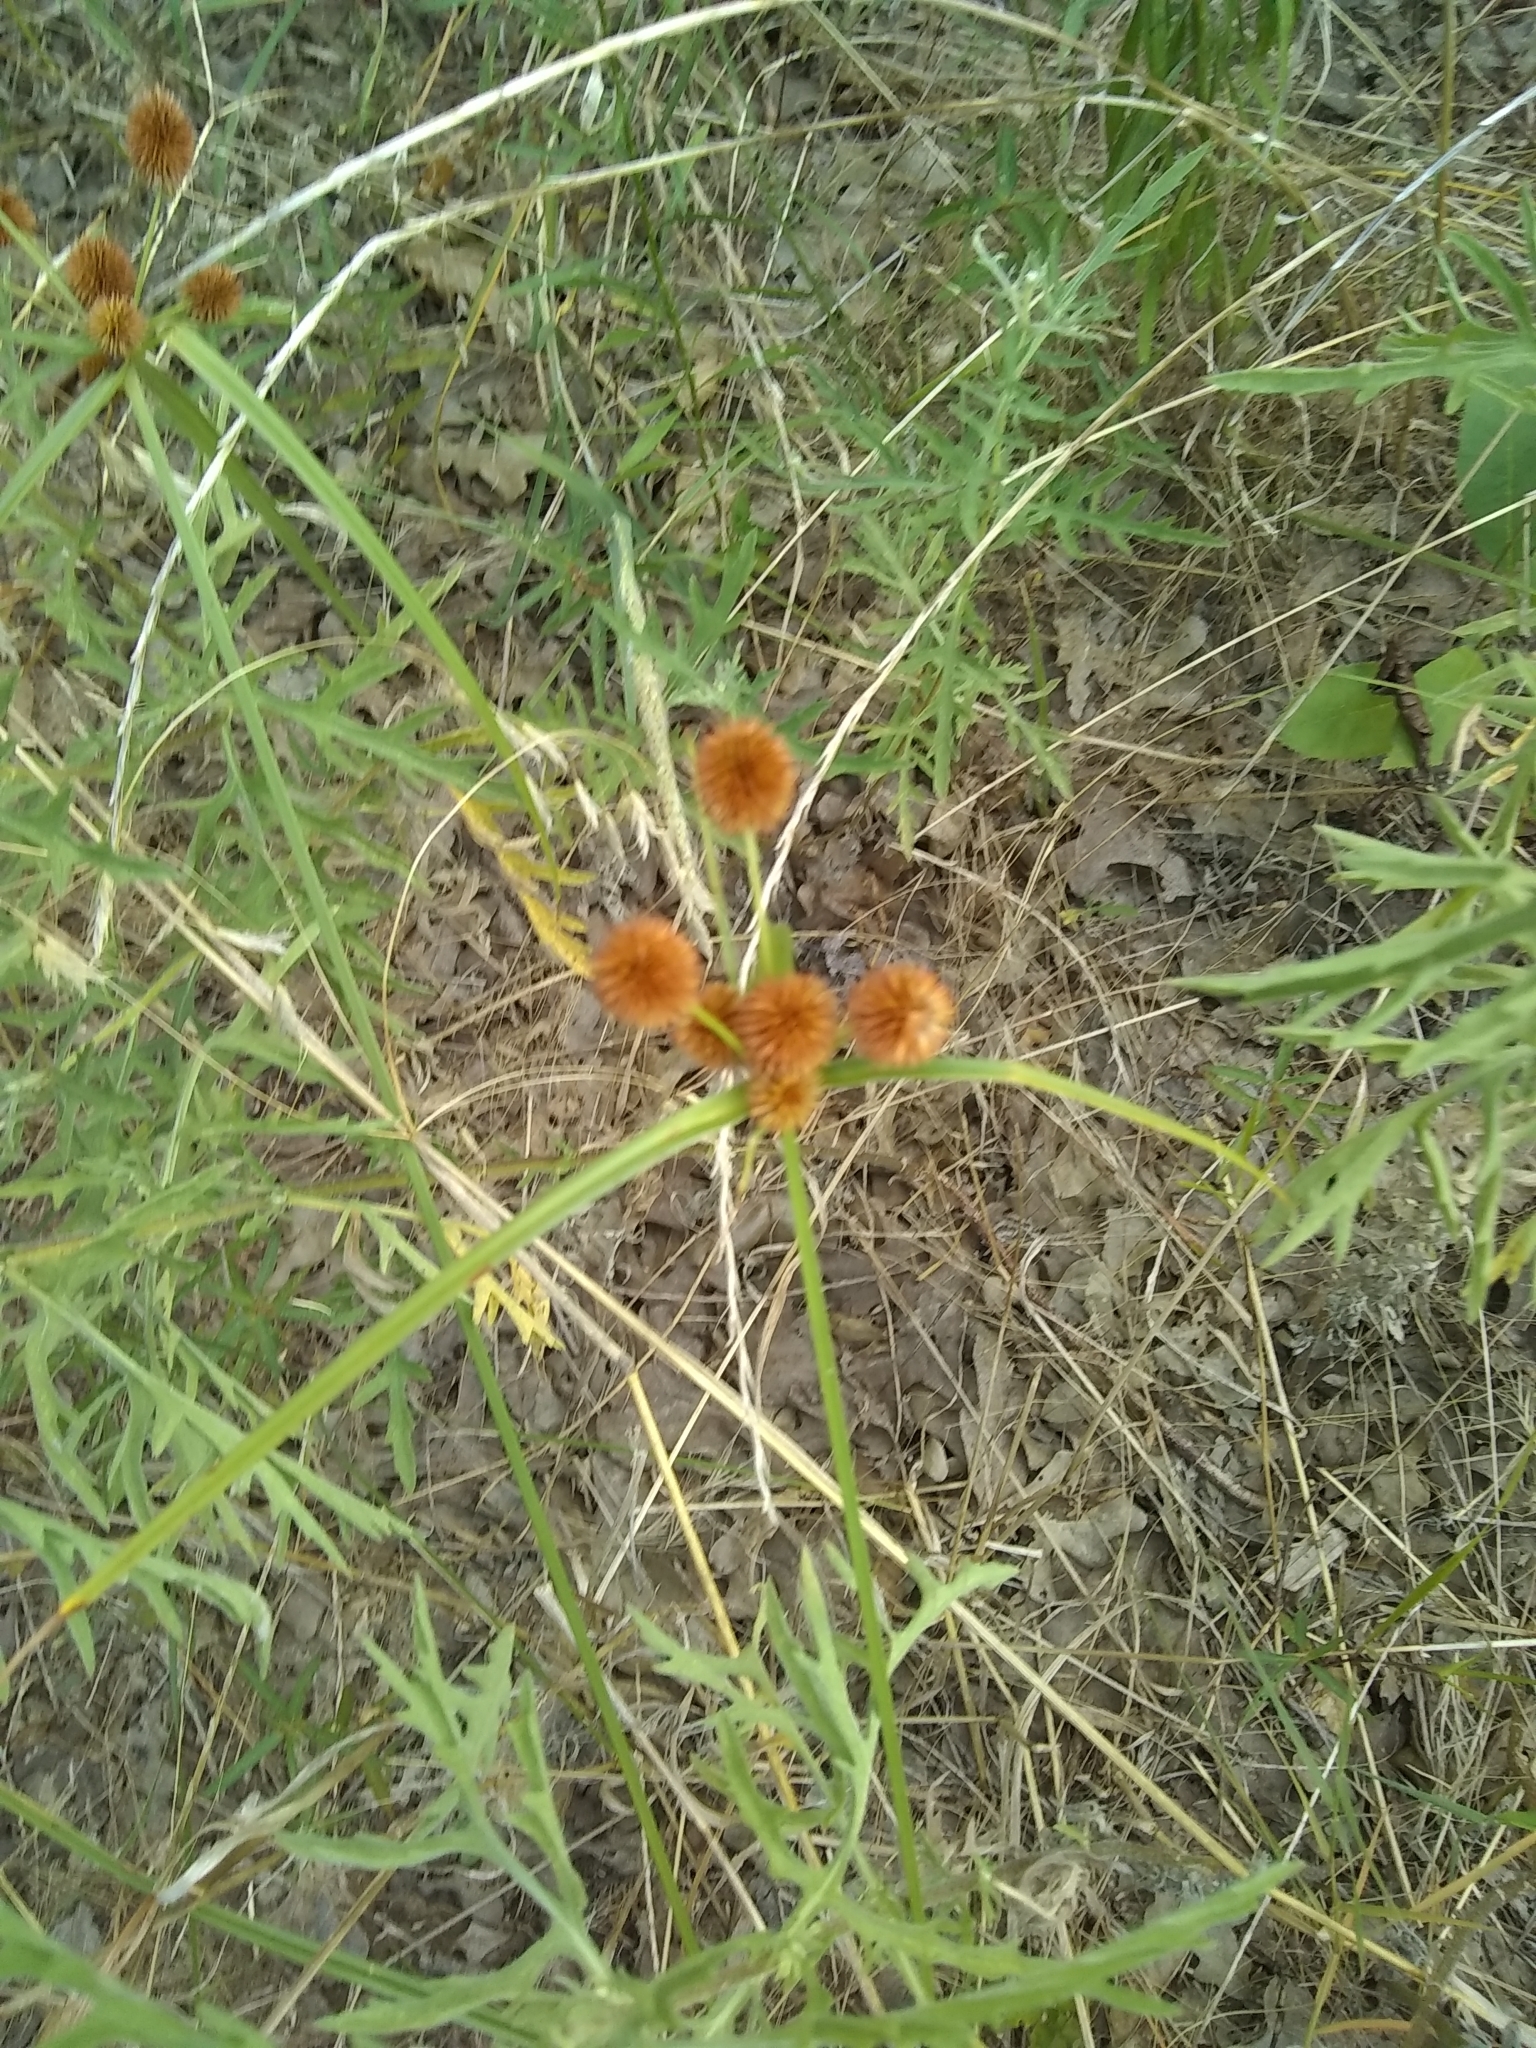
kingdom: Plantae
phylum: Tracheophyta
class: Liliopsida
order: Poales
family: Cyperaceae
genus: Cyperus
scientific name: Cyperus echinatus
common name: Teasel sedge
